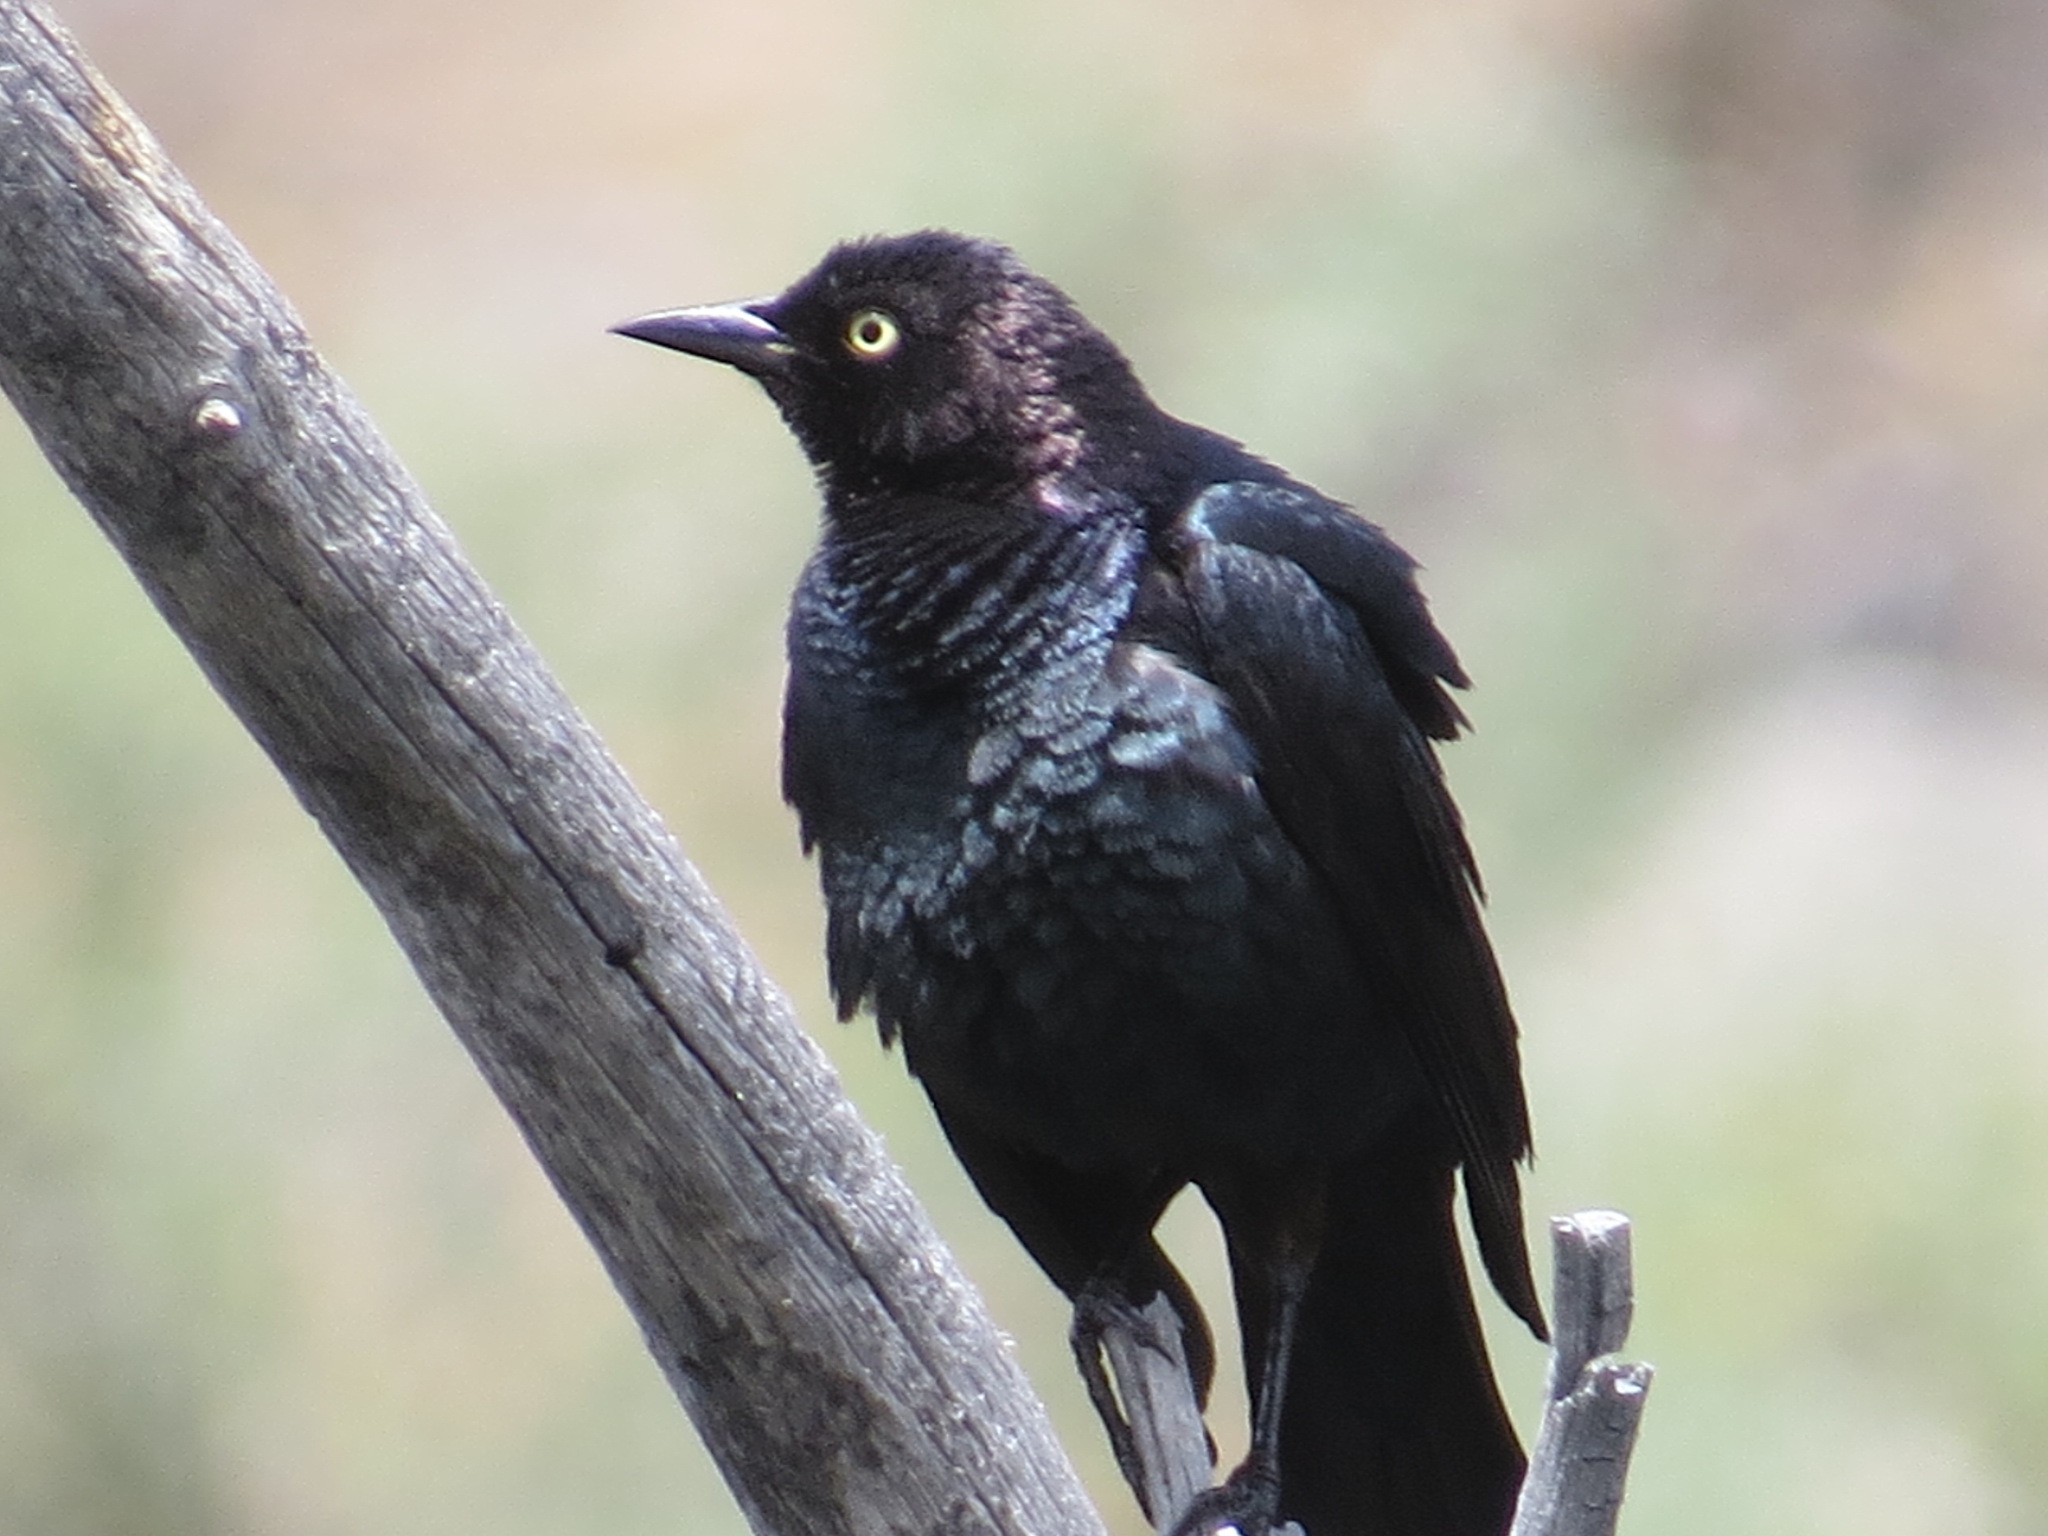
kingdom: Animalia
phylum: Chordata
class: Aves
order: Passeriformes
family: Icteridae
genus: Euphagus
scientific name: Euphagus cyanocephalus
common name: Brewer's blackbird
